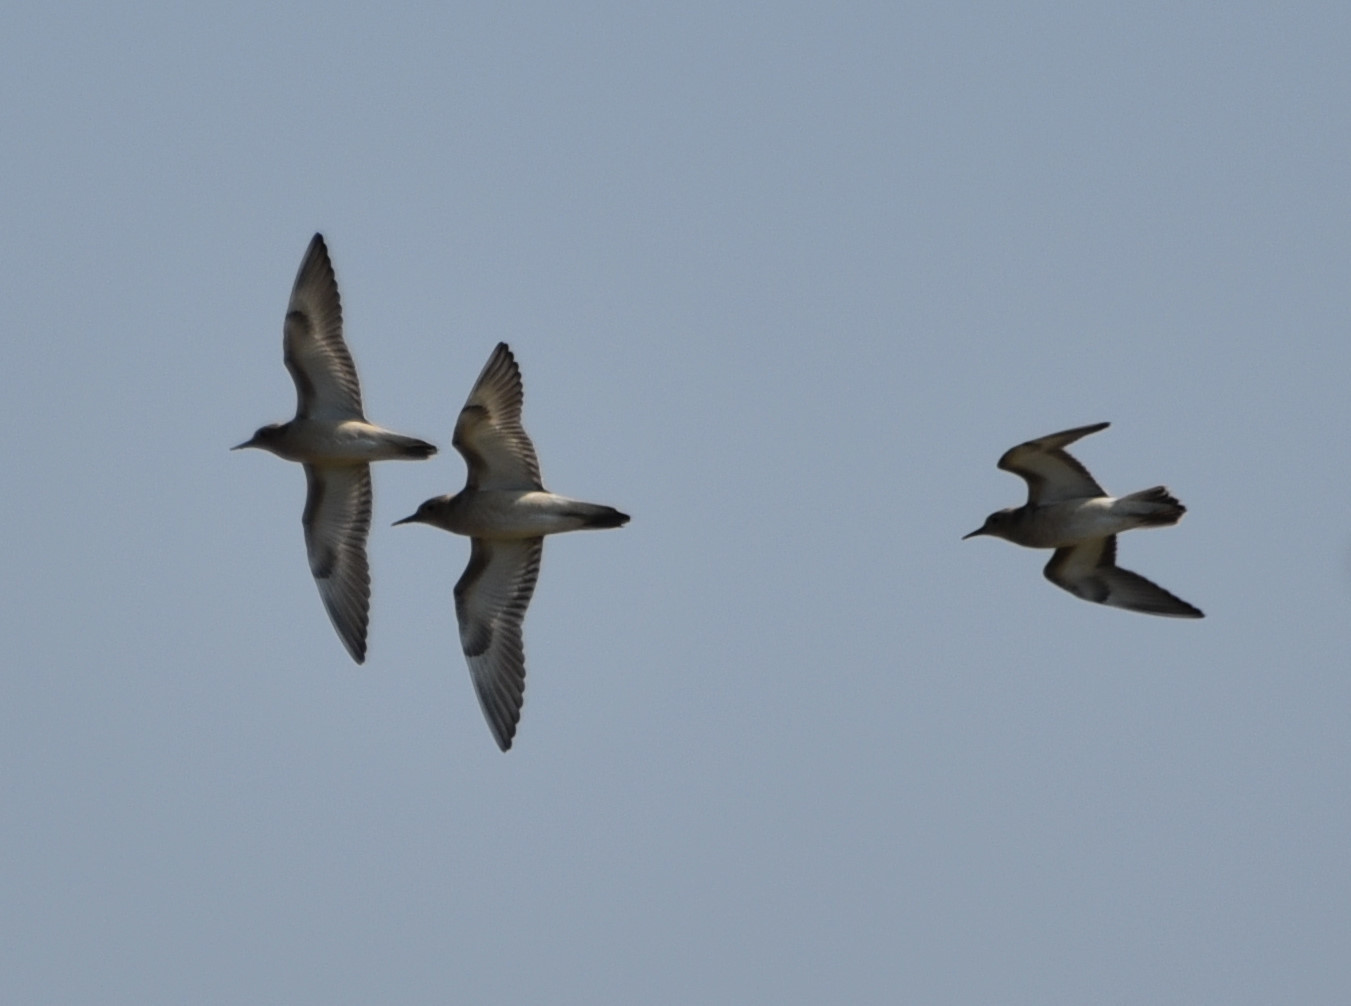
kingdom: Animalia
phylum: Chordata
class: Aves
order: Charadriiformes
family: Scolopacidae
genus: Calidris
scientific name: Calidris subruficollis
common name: Buff-breasted sandpiper
